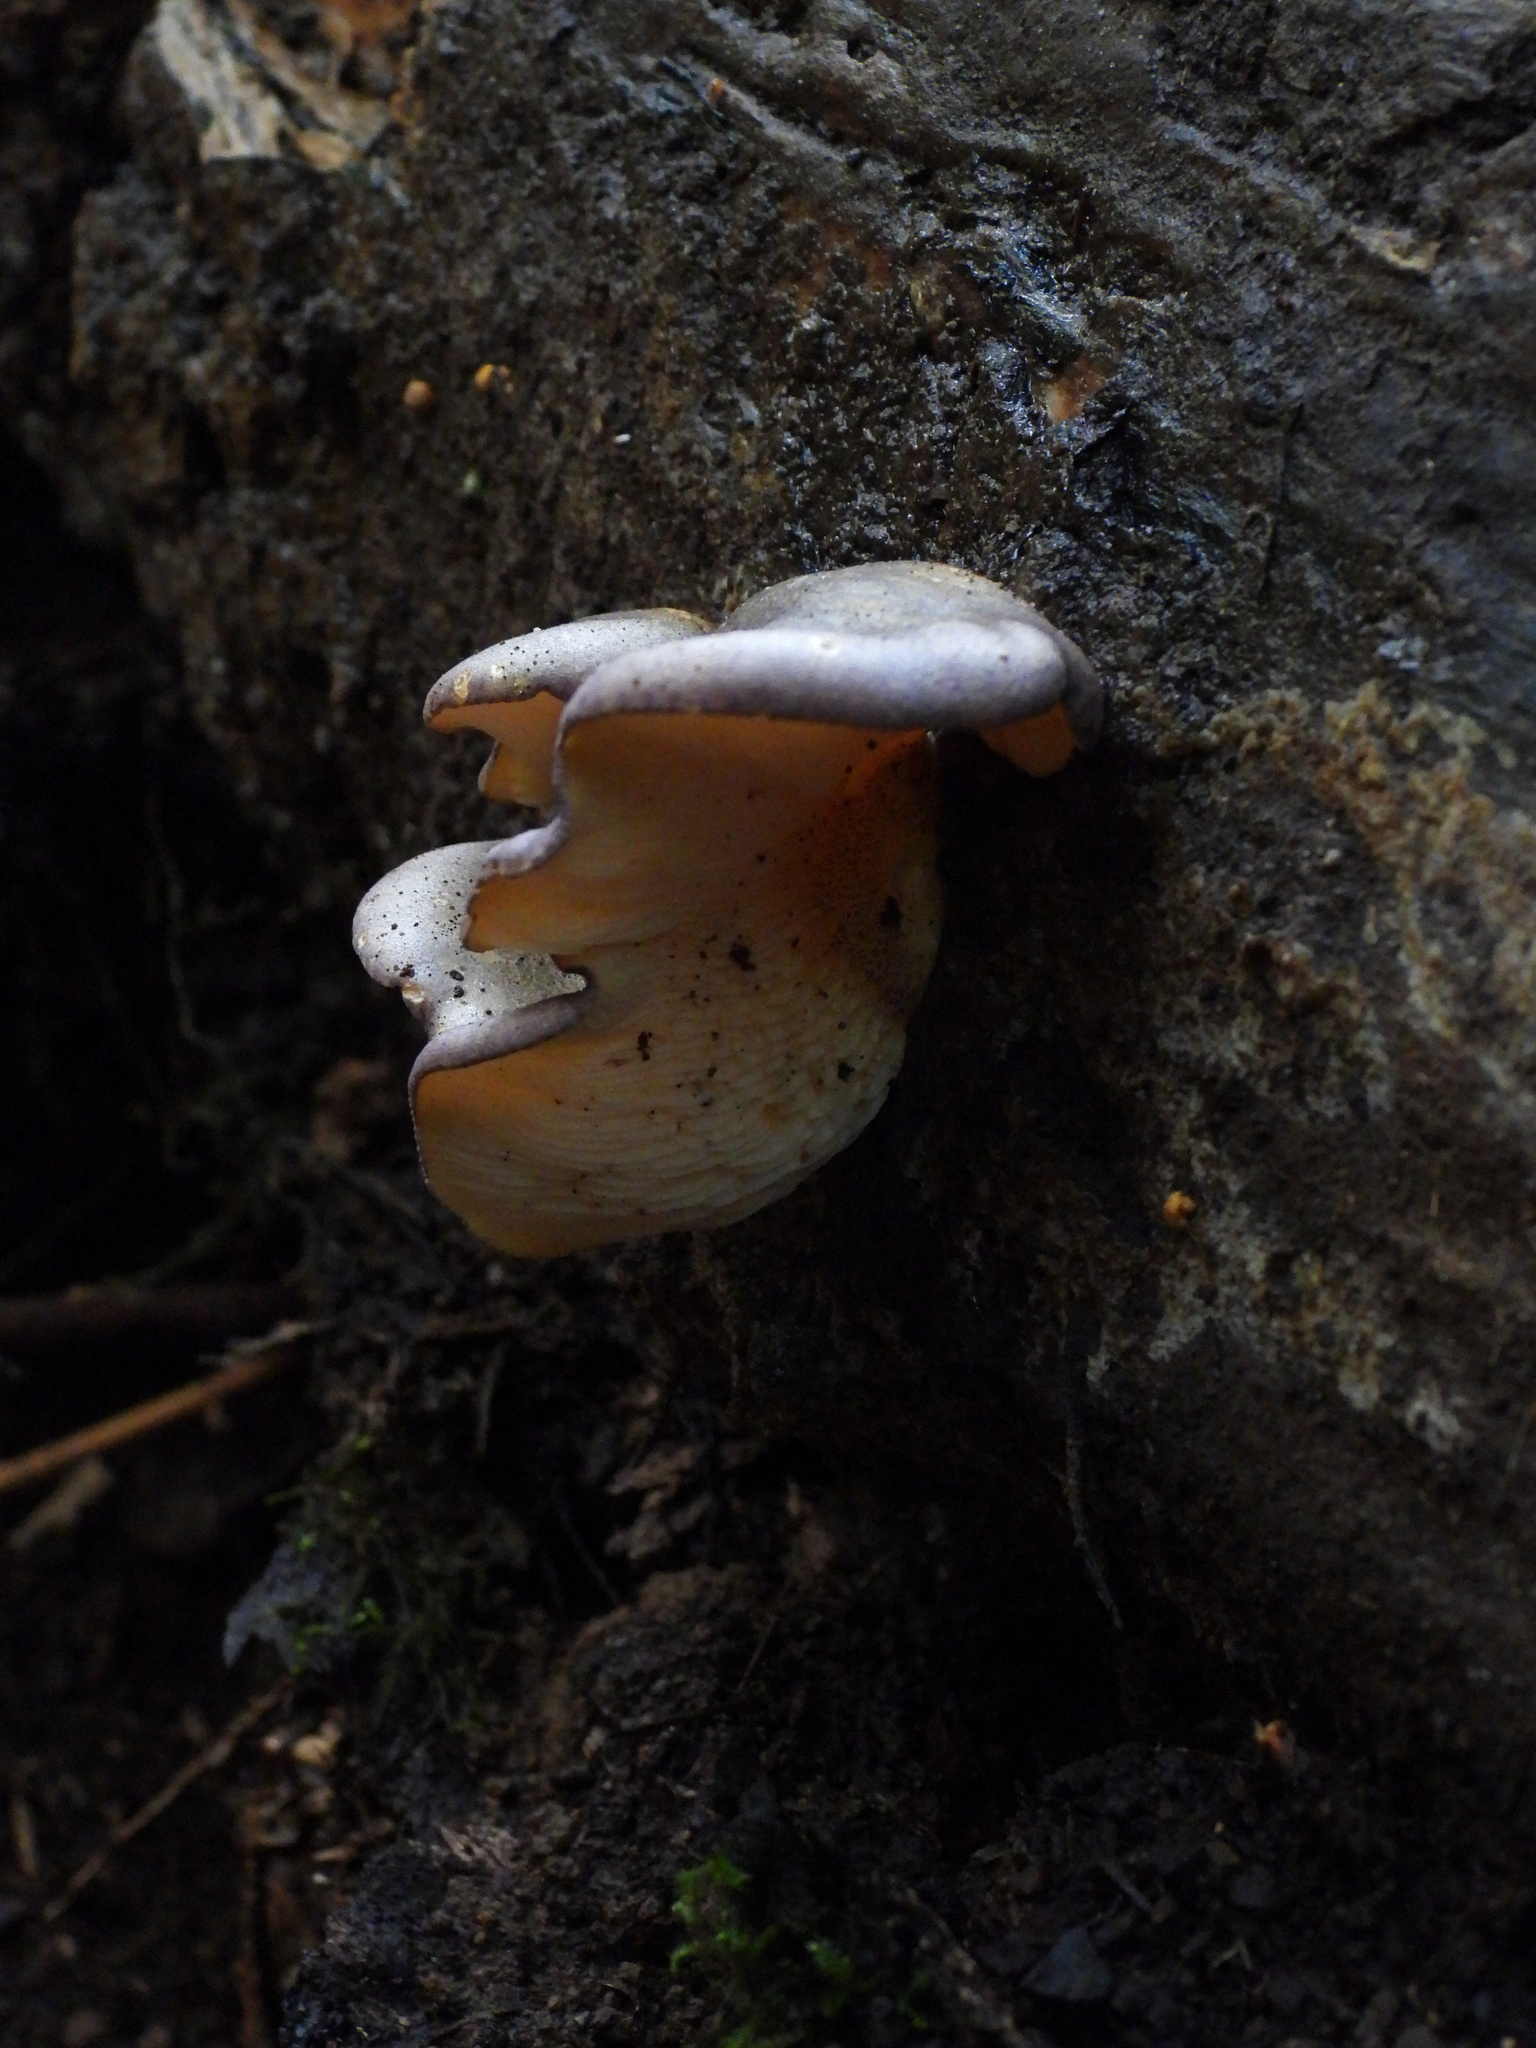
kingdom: Fungi
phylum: Basidiomycota
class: Agaricomycetes
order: Agaricales
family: Sarcomyxaceae
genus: Sarcomyxa
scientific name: Sarcomyxa serotina
